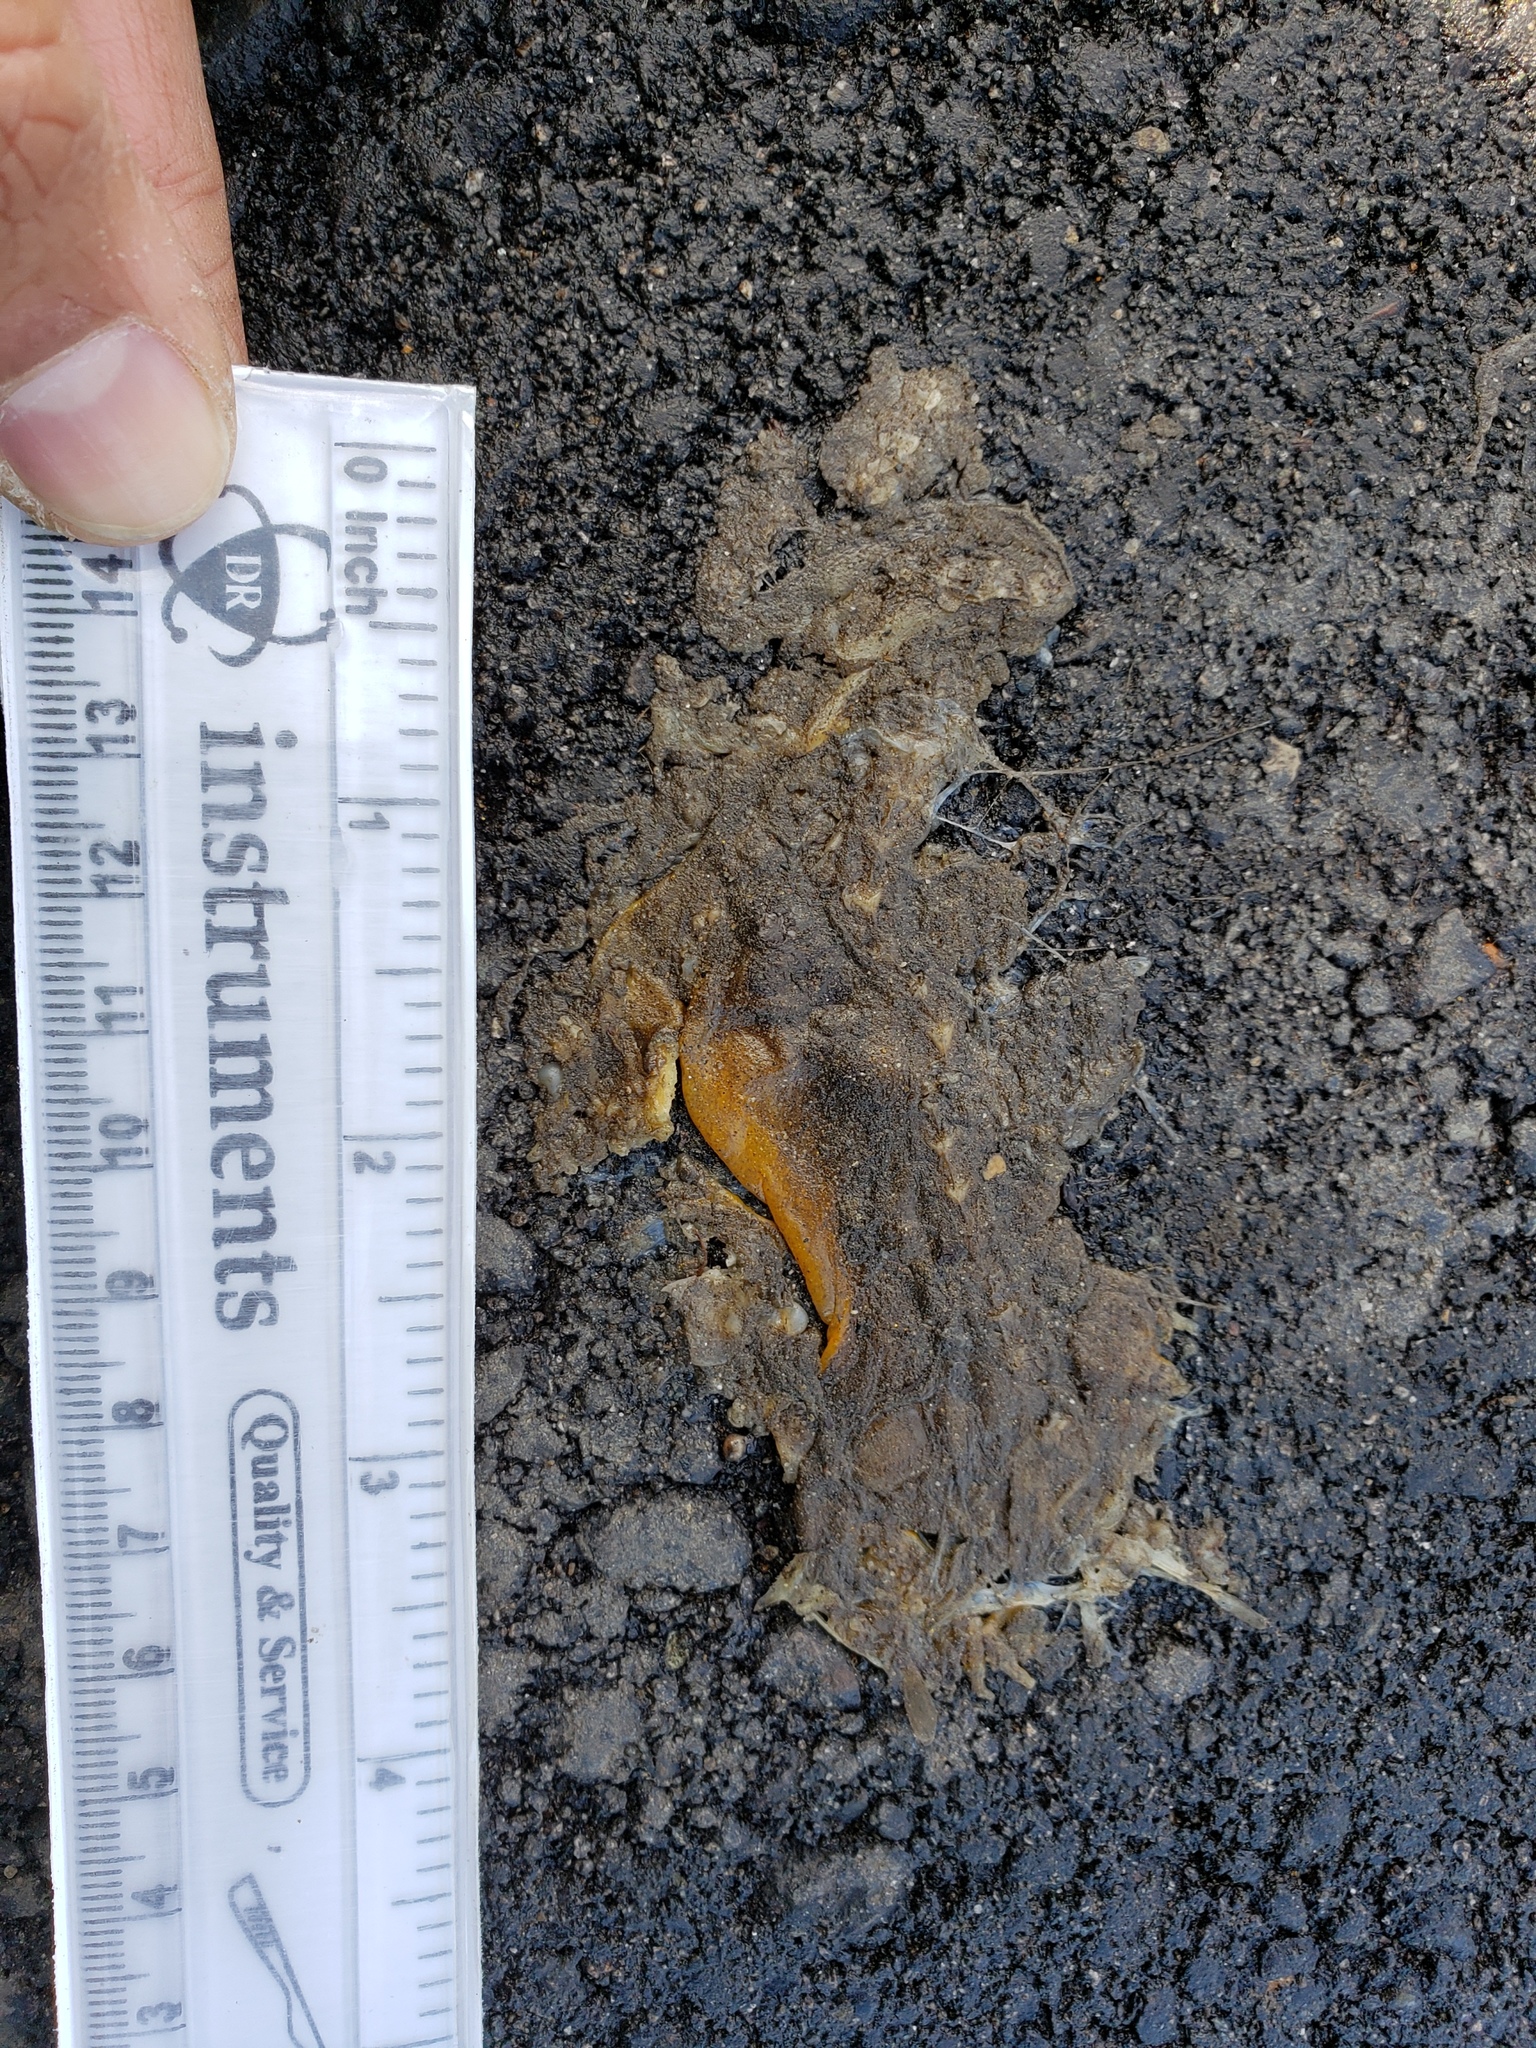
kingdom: Animalia
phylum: Chordata
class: Amphibia
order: Caudata
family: Salamandridae
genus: Taricha
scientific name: Taricha
